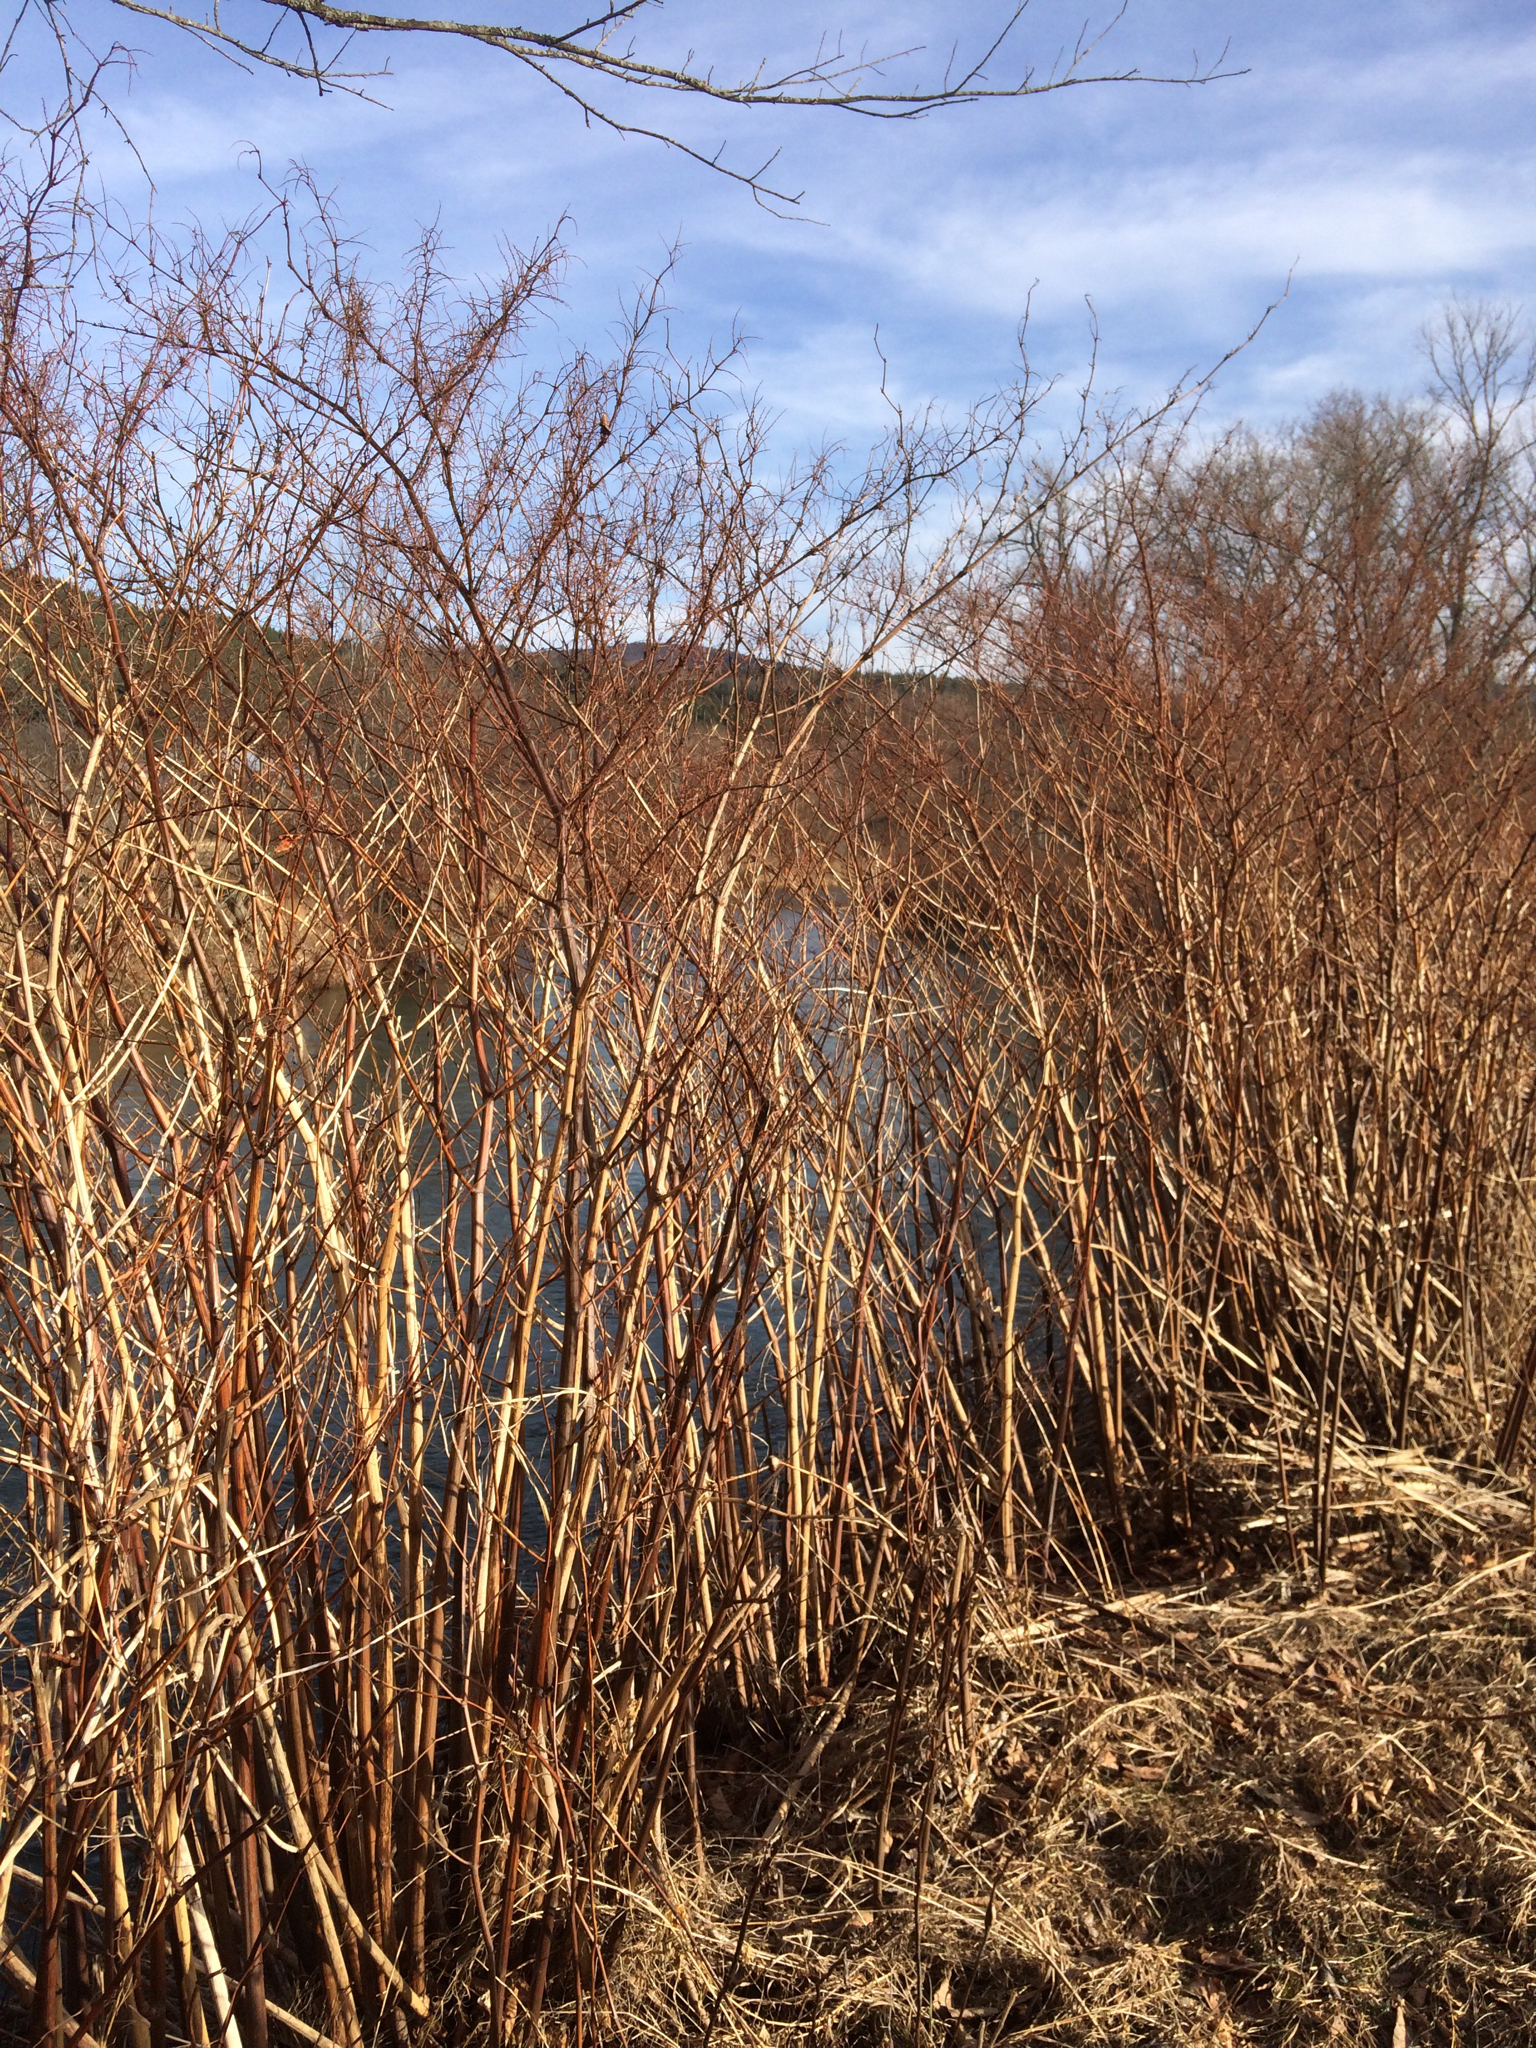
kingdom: Plantae
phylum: Tracheophyta
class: Magnoliopsida
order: Caryophyllales
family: Polygonaceae
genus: Reynoutria
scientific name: Reynoutria japonica
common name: Japanese knotweed
